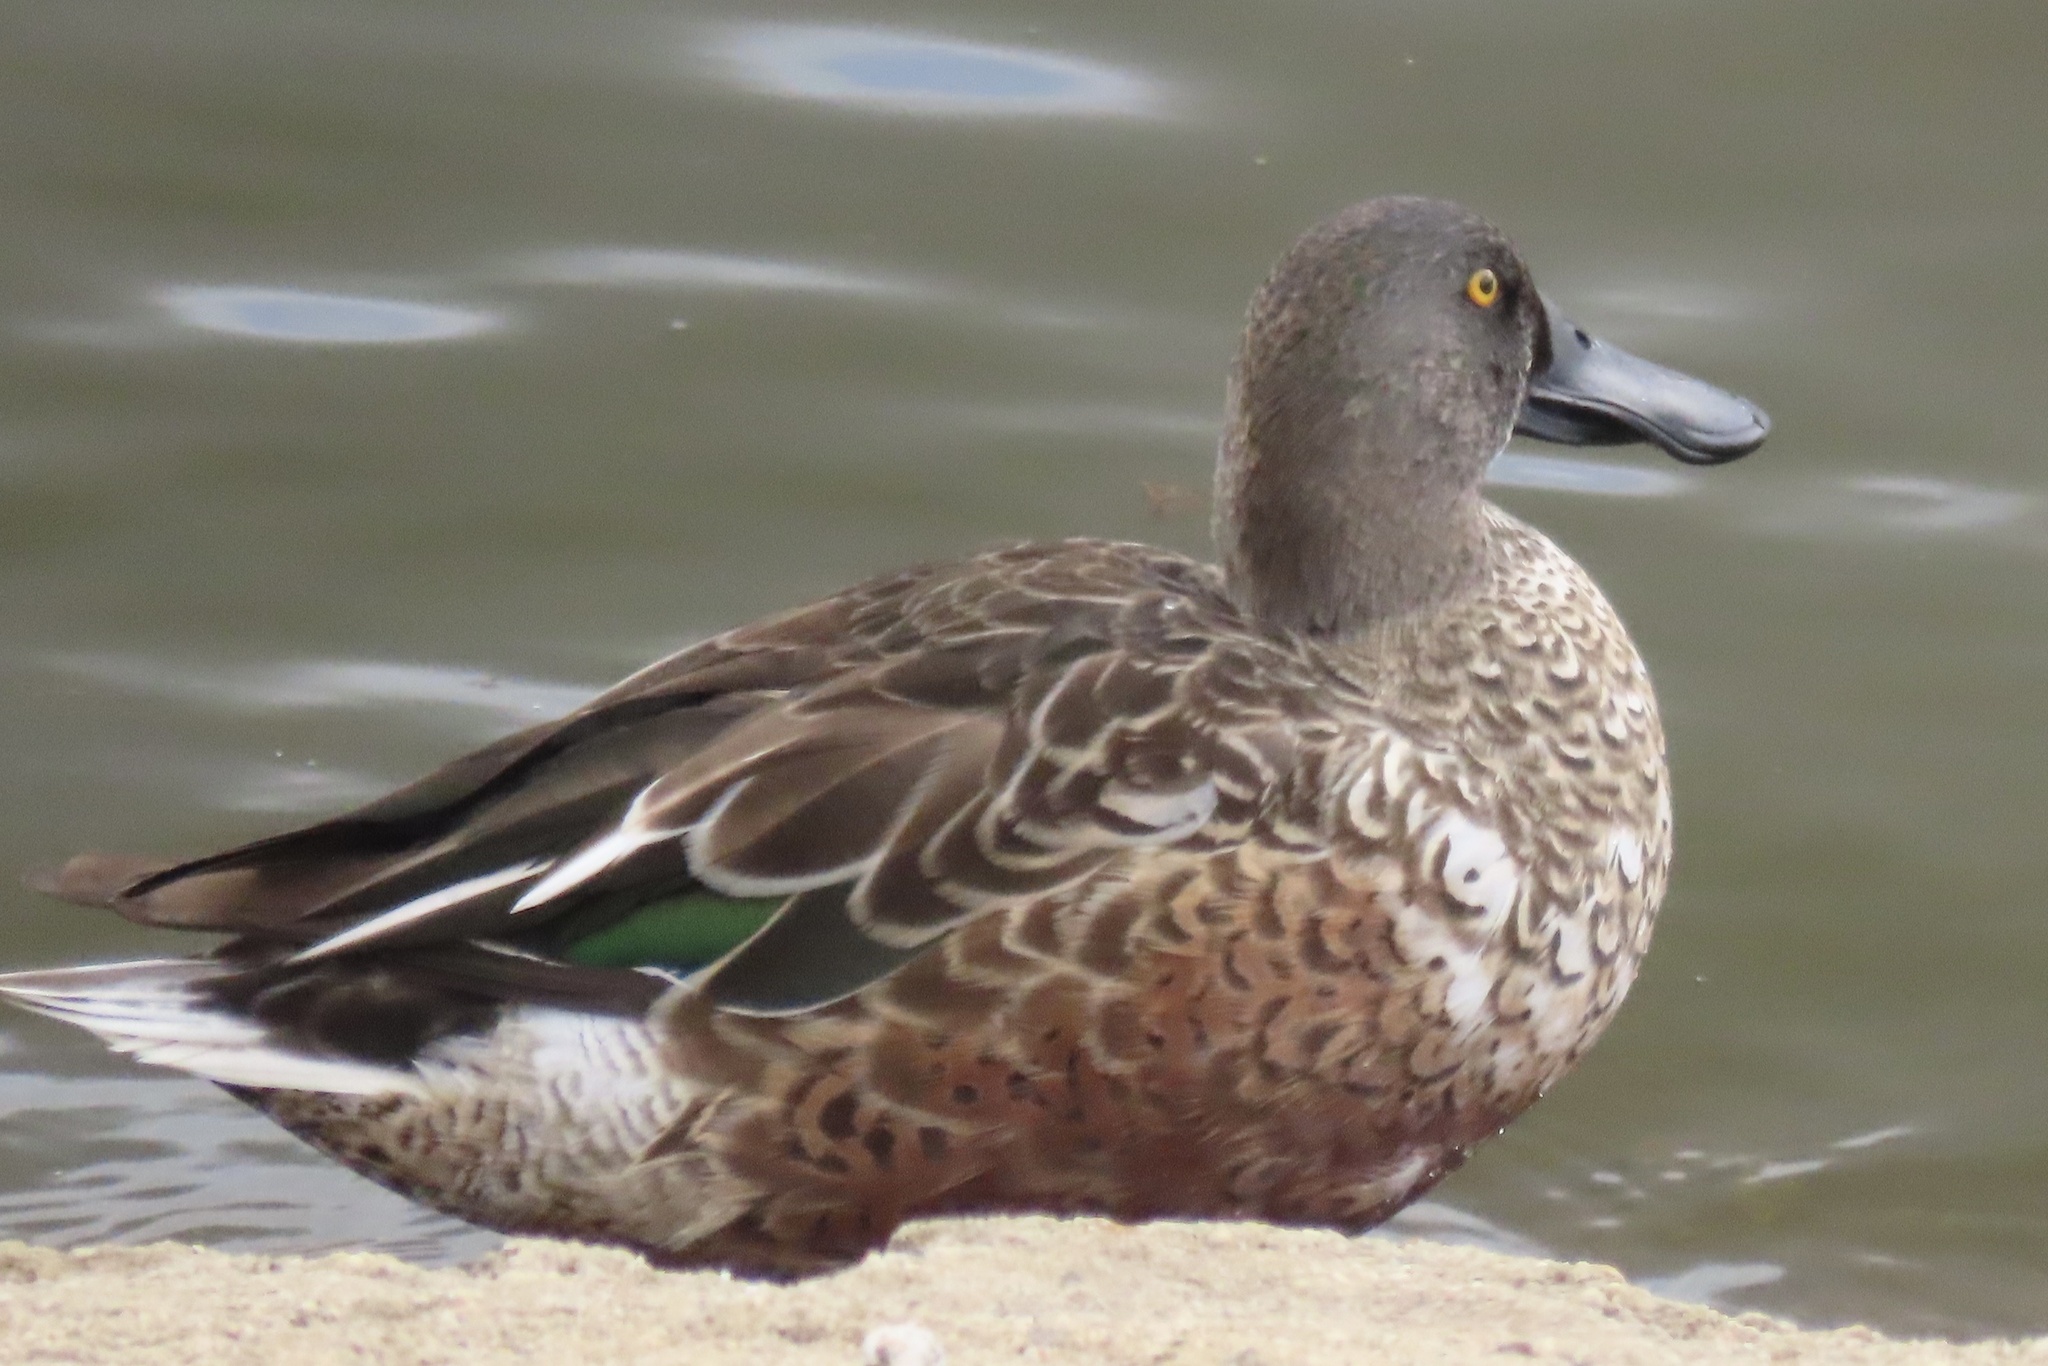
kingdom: Animalia
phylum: Chordata
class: Aves
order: Anseriformes
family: Anatidae
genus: Spatula
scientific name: Spatula clypeata
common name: Northern shoveler
